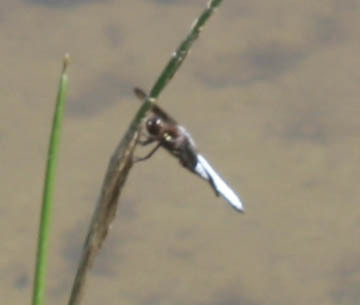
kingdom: Animalia
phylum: Arthropoda
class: Insecta
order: Odonata
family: Libellulidae
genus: Plathemis
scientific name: Plathemis lydia
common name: Common whitetail
